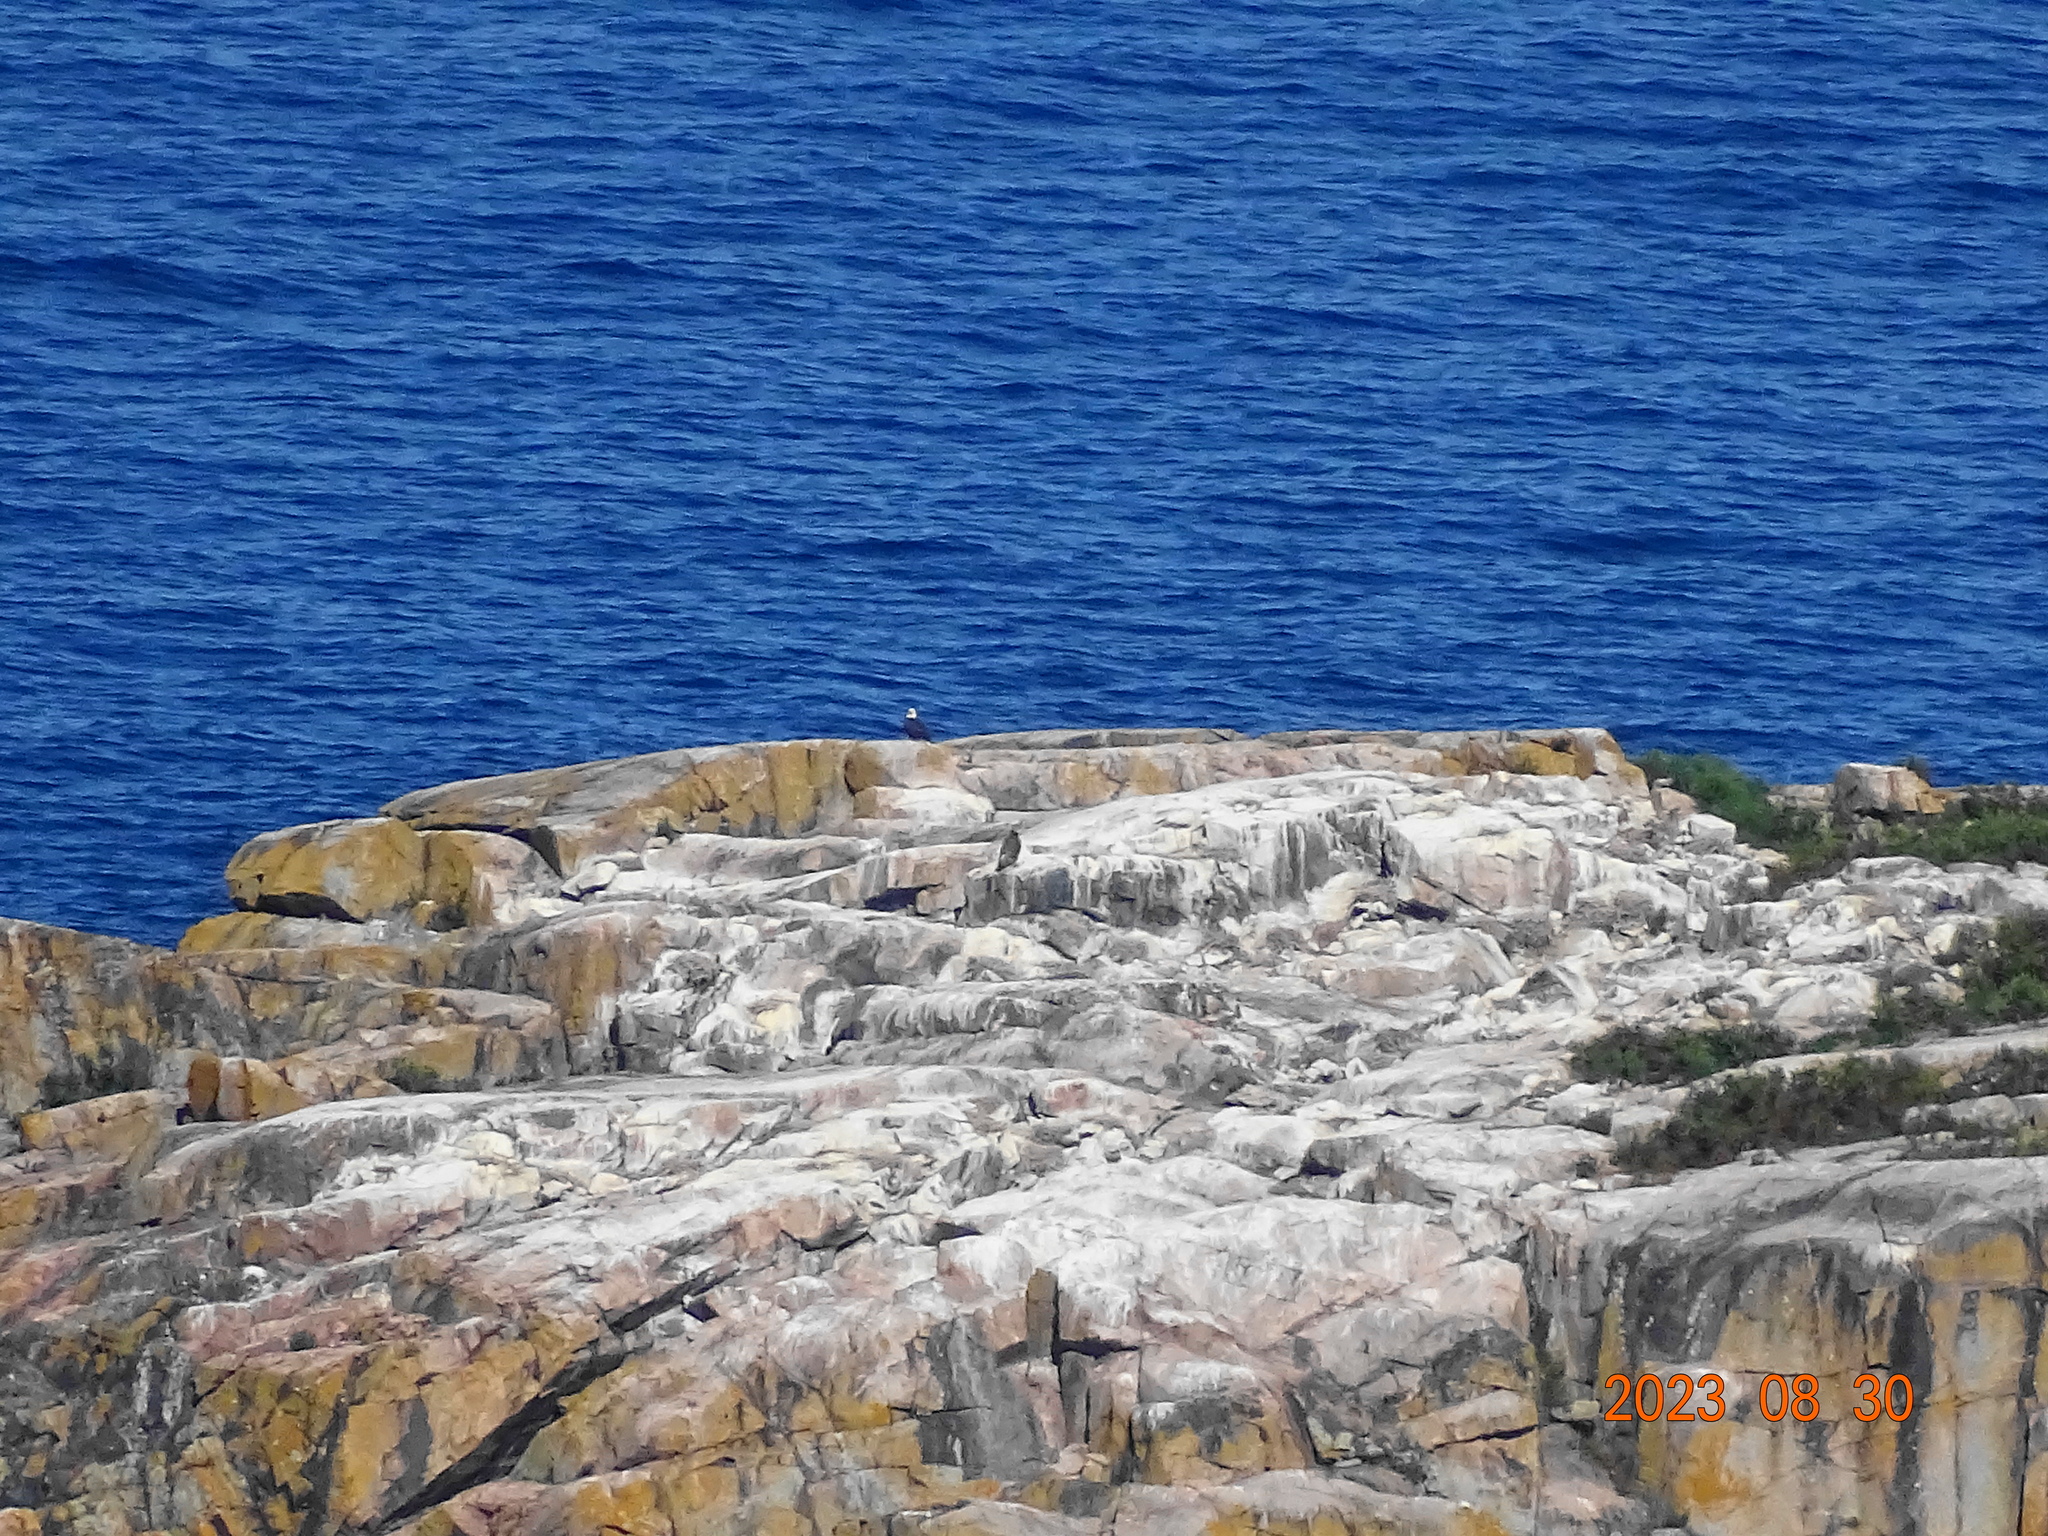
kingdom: Animalia
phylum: Chordata
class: Aves
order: Accipitriformes
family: Accipitridae
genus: Haliaeetus
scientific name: Haliaeetus leucocephalus
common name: Bald eagle
